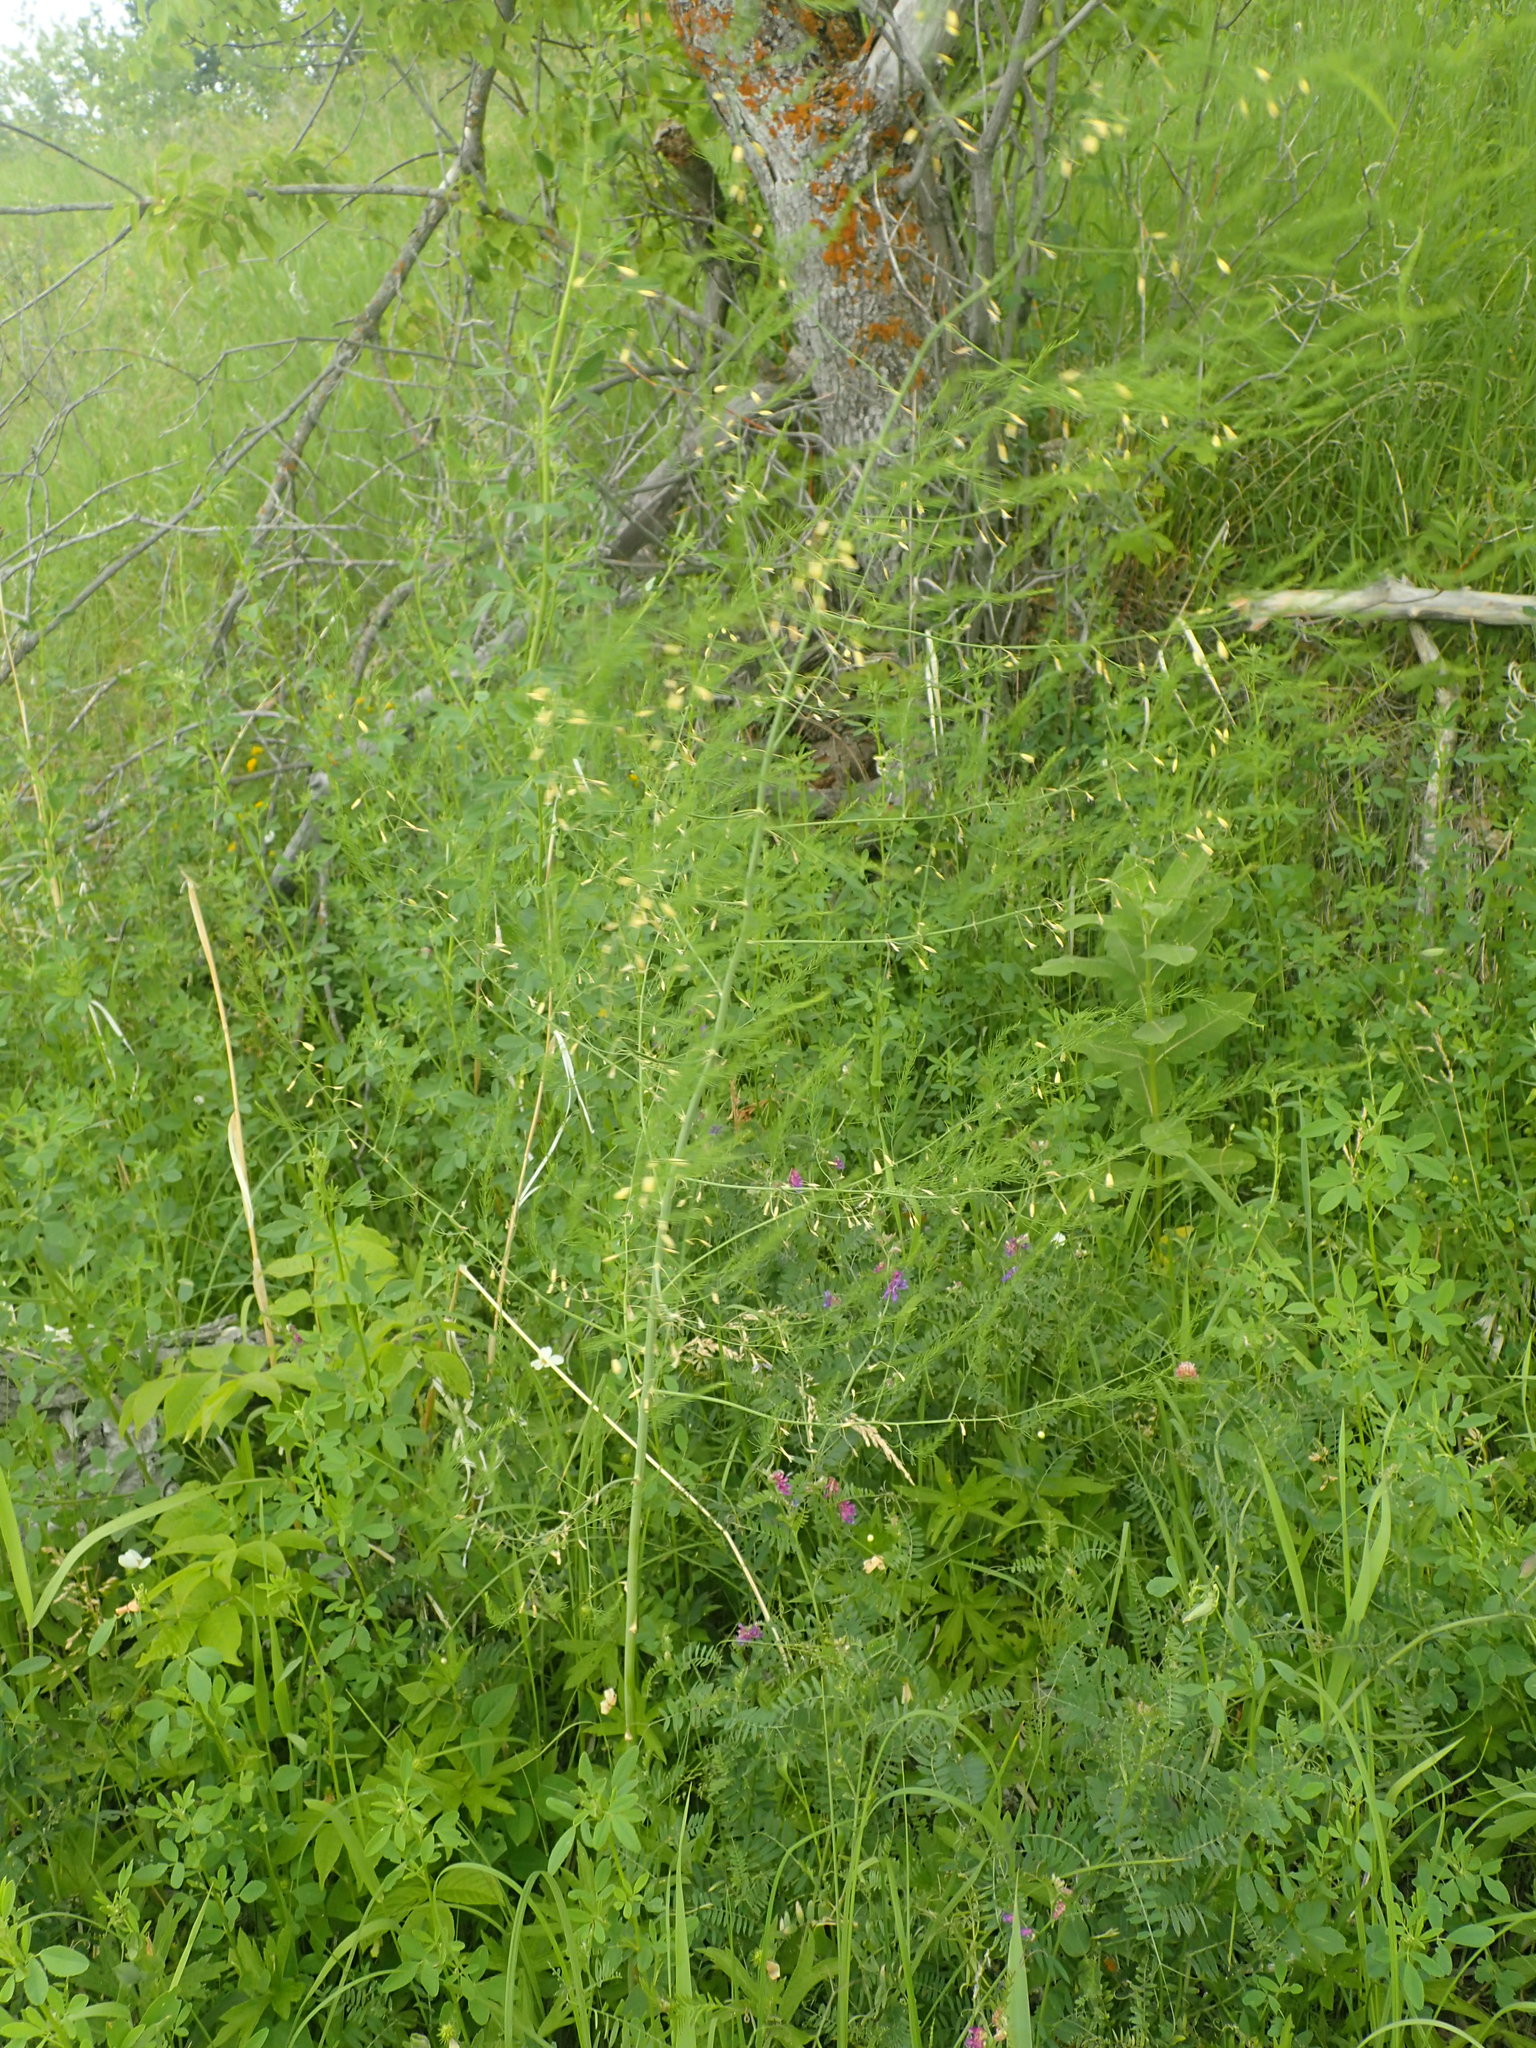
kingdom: Plantae
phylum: Tracheophyta
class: Liliopsida
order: Asparagales
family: Asparagaceae
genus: Asparagus
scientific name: Asparagus officinalis
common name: Garden asparagus
